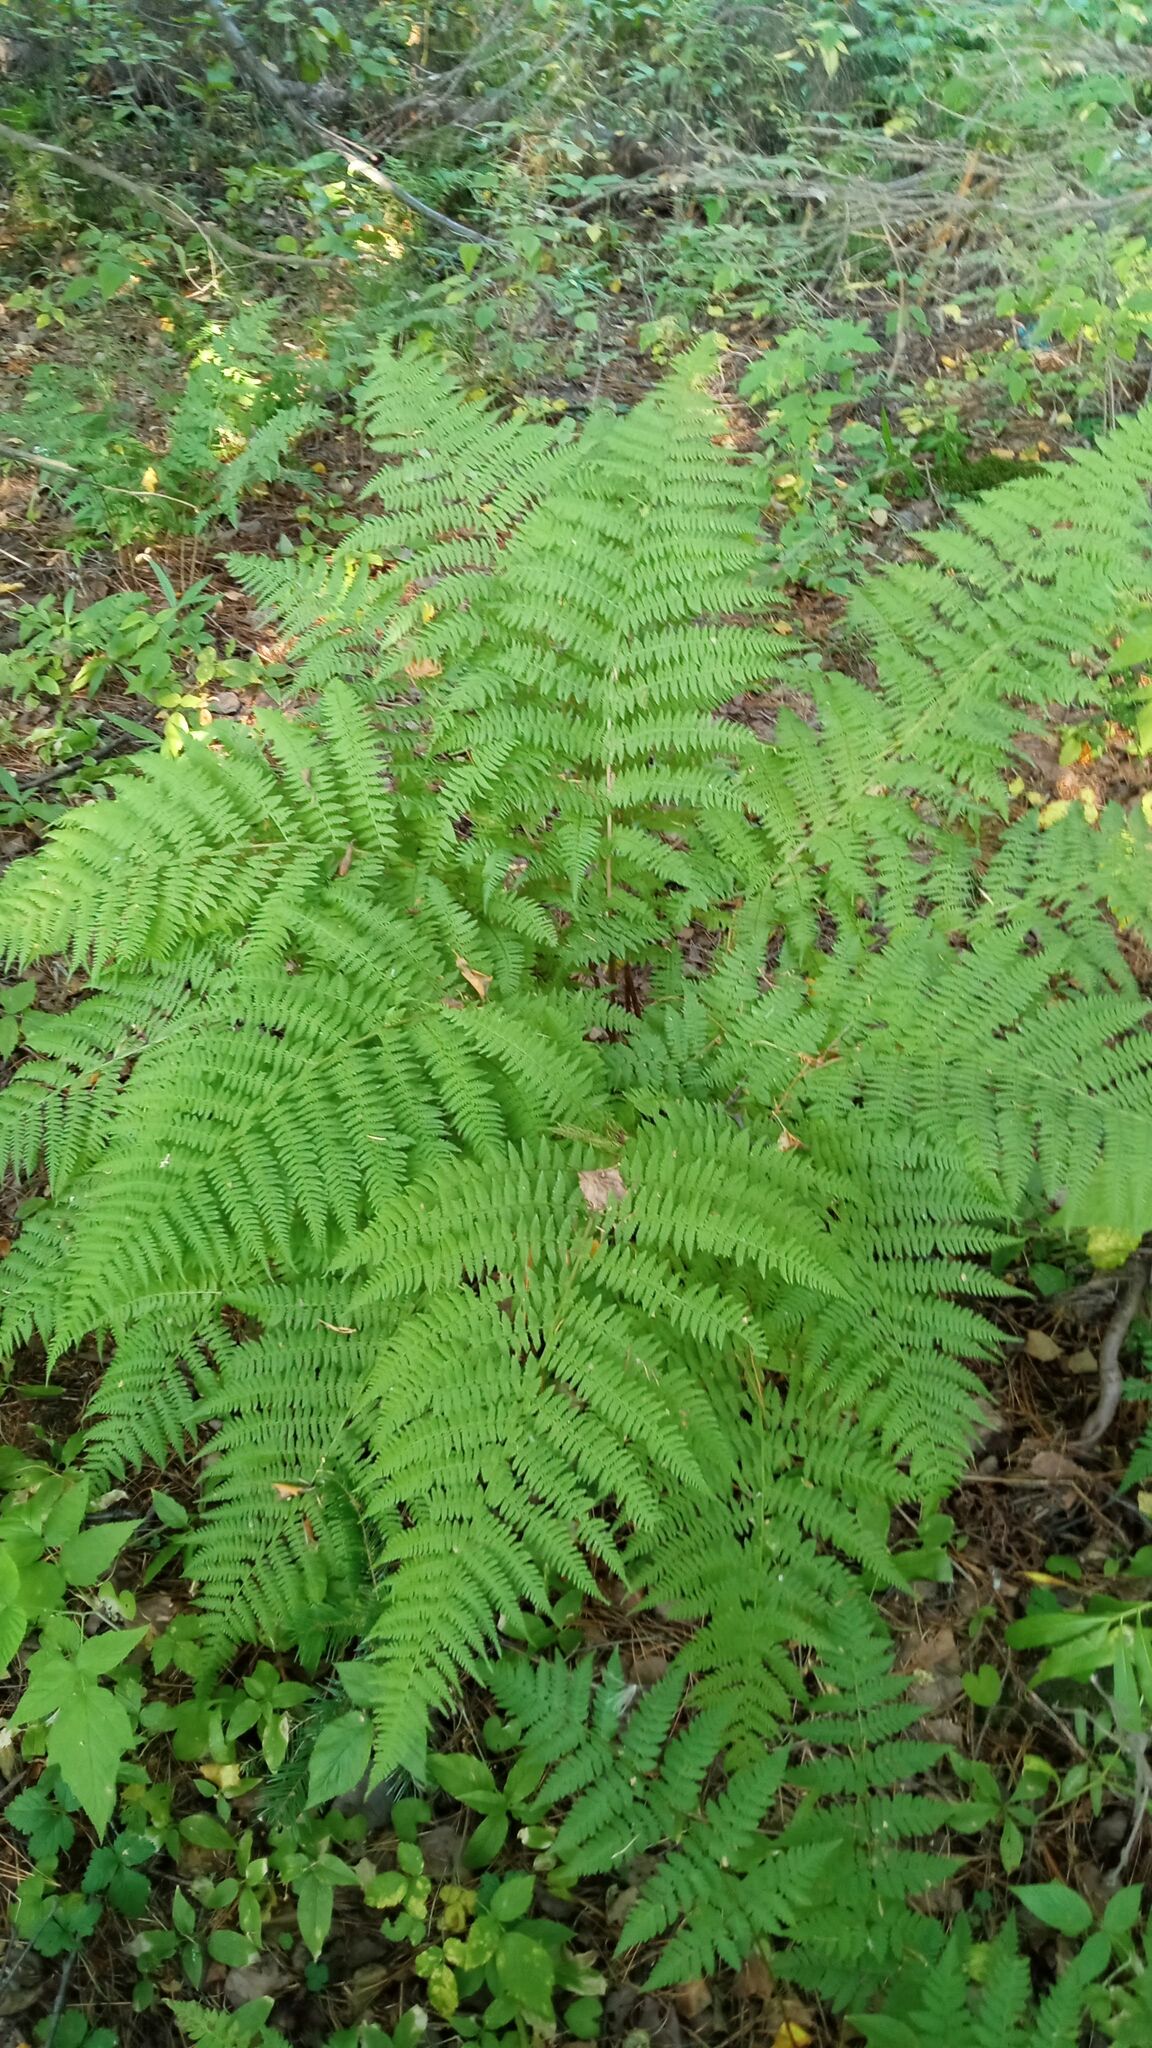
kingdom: Plantae
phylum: Tracheophyta
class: Polypodiopsida
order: Polypodiales
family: Athyriaceae
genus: Athyrium
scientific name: Athyrium filix-femina
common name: Lady fern
